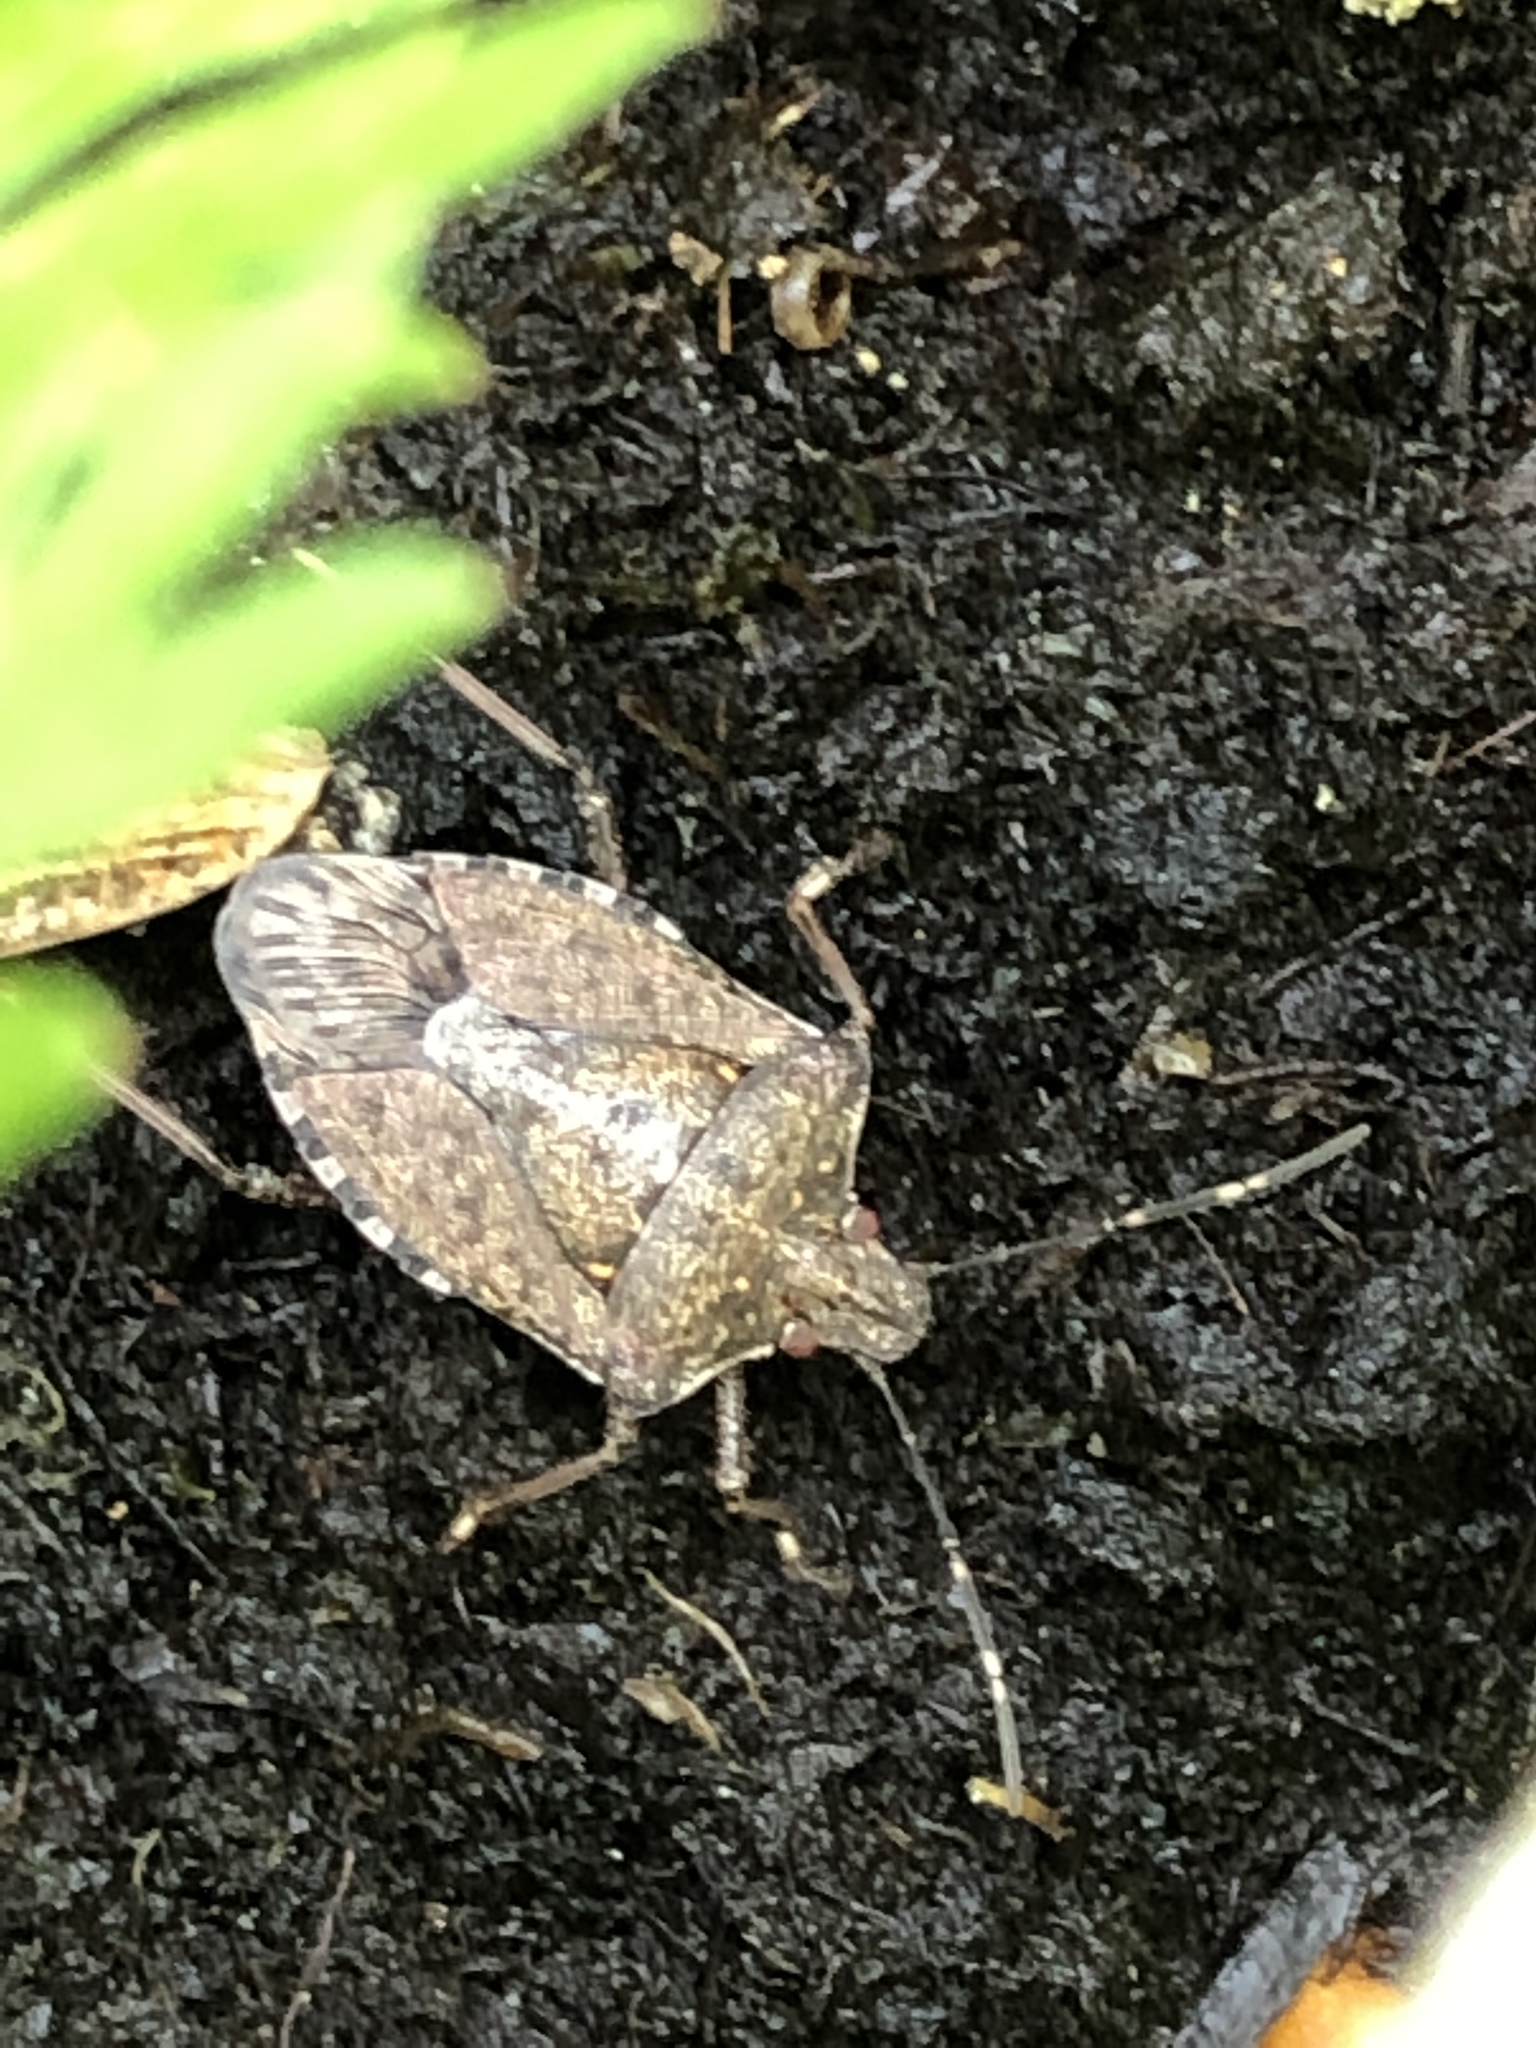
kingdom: Animalia
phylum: Arthropoda
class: Insecta
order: Hemiptera
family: Pentatomidae
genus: Halyomorpha
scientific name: Halyomorpha halys
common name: Brown marmorated stink bug
